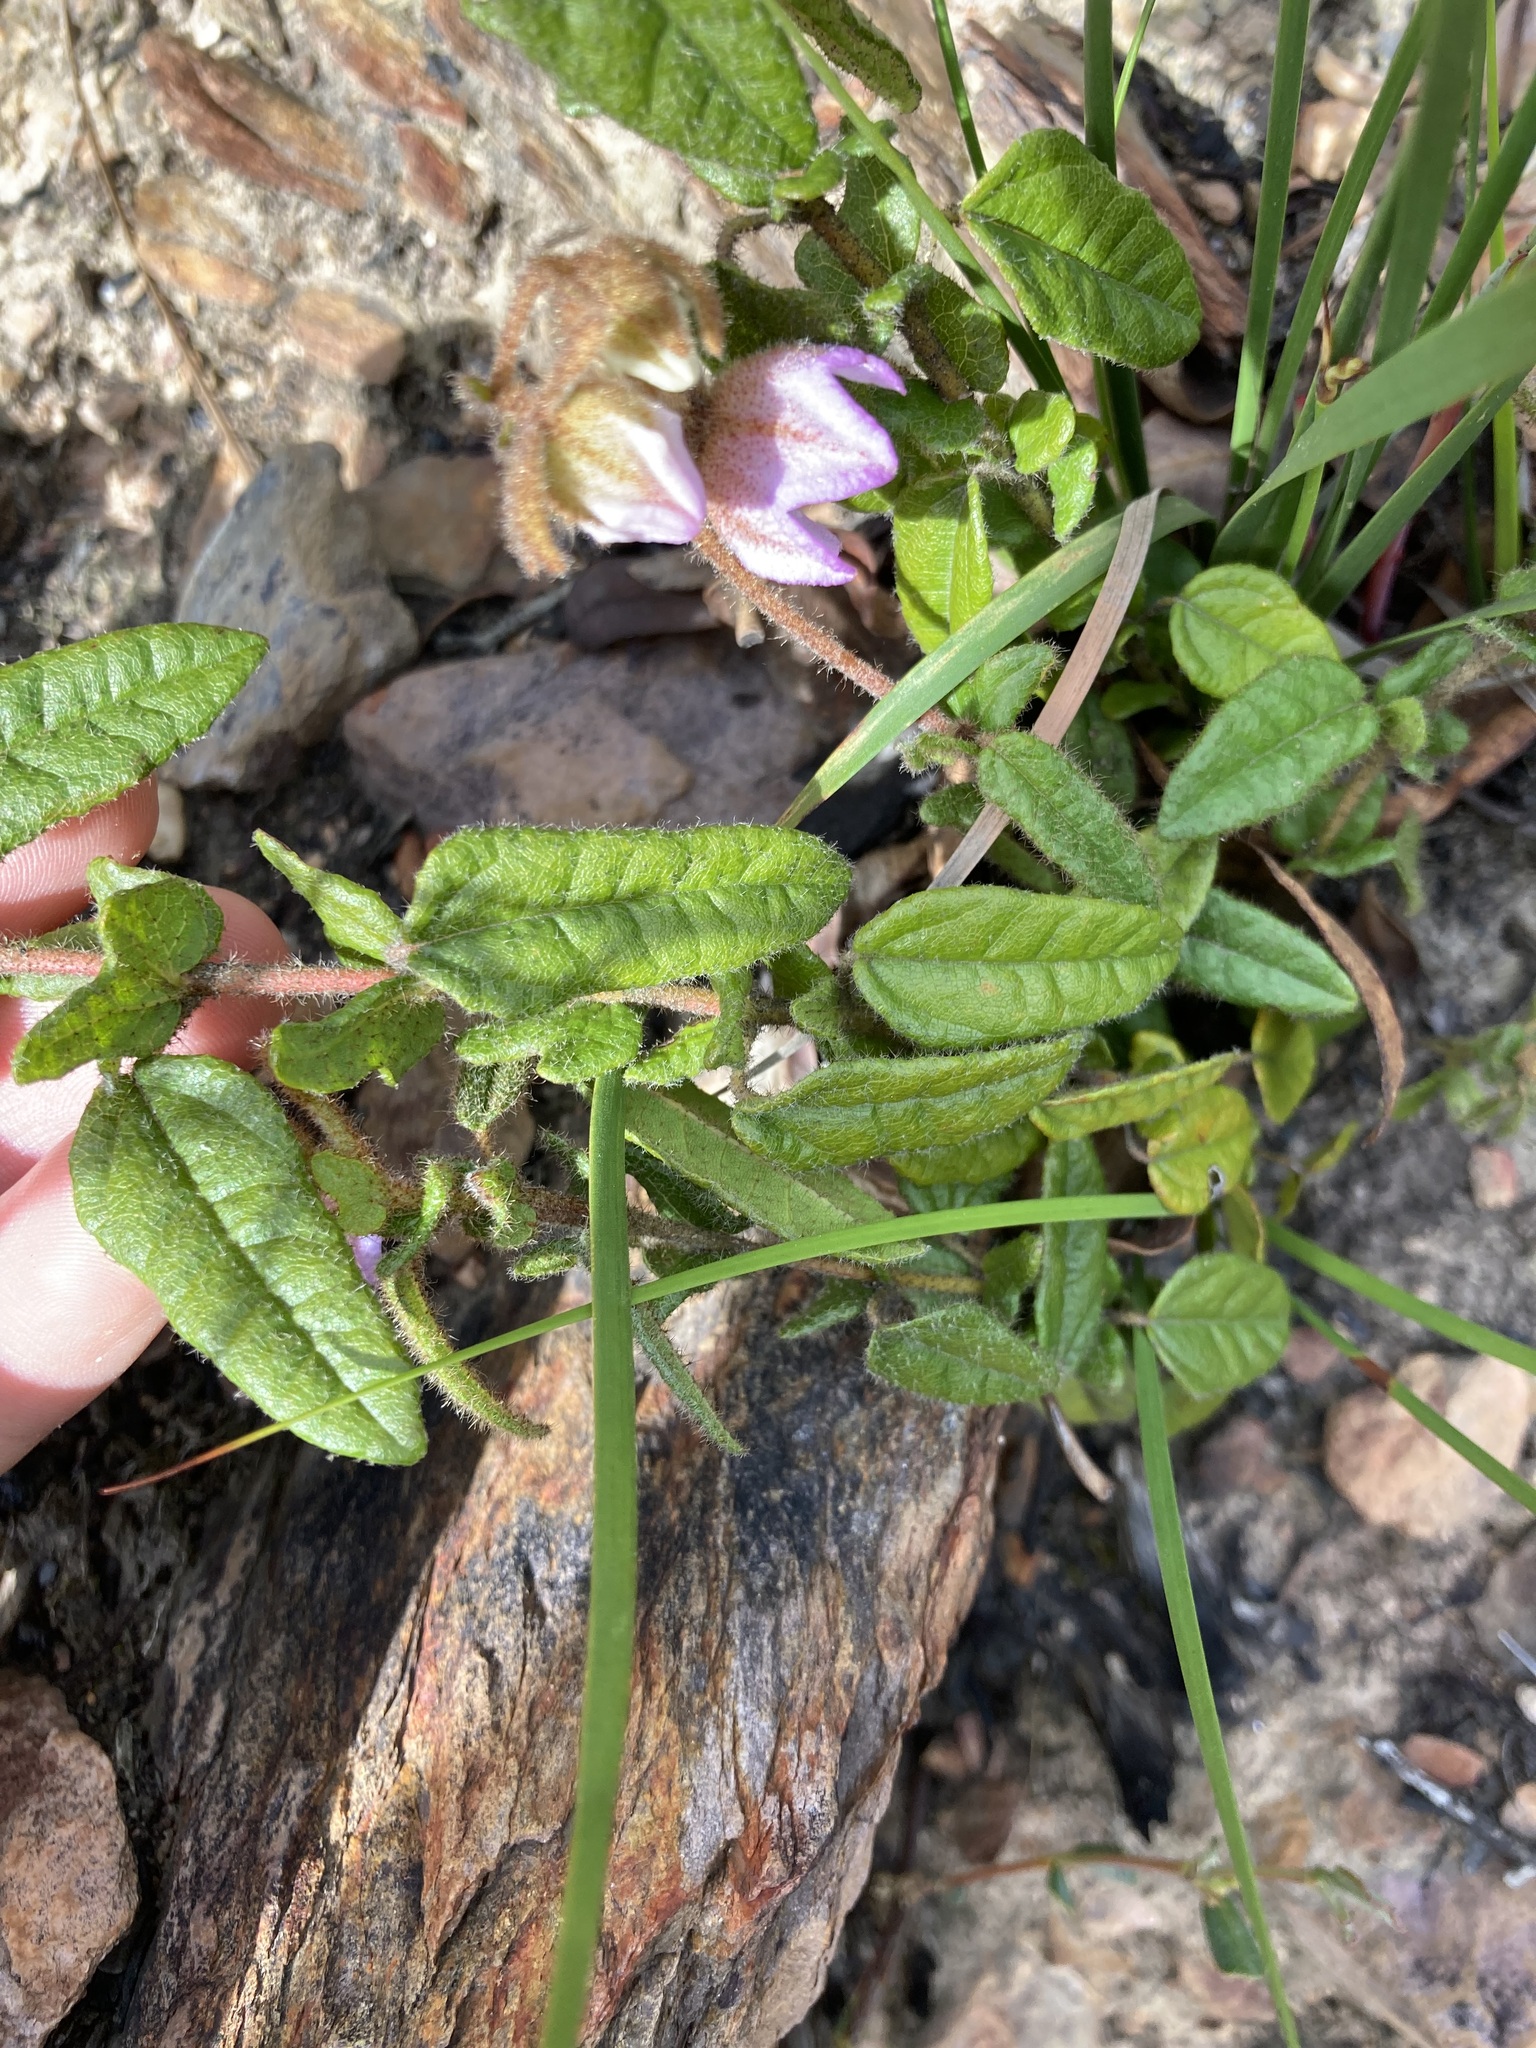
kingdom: Plantae
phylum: Tracheophyta
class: Magnoliopsida
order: Malvales
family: Malvaceae
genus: Thomasia
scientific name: Thomasia pauciflora
